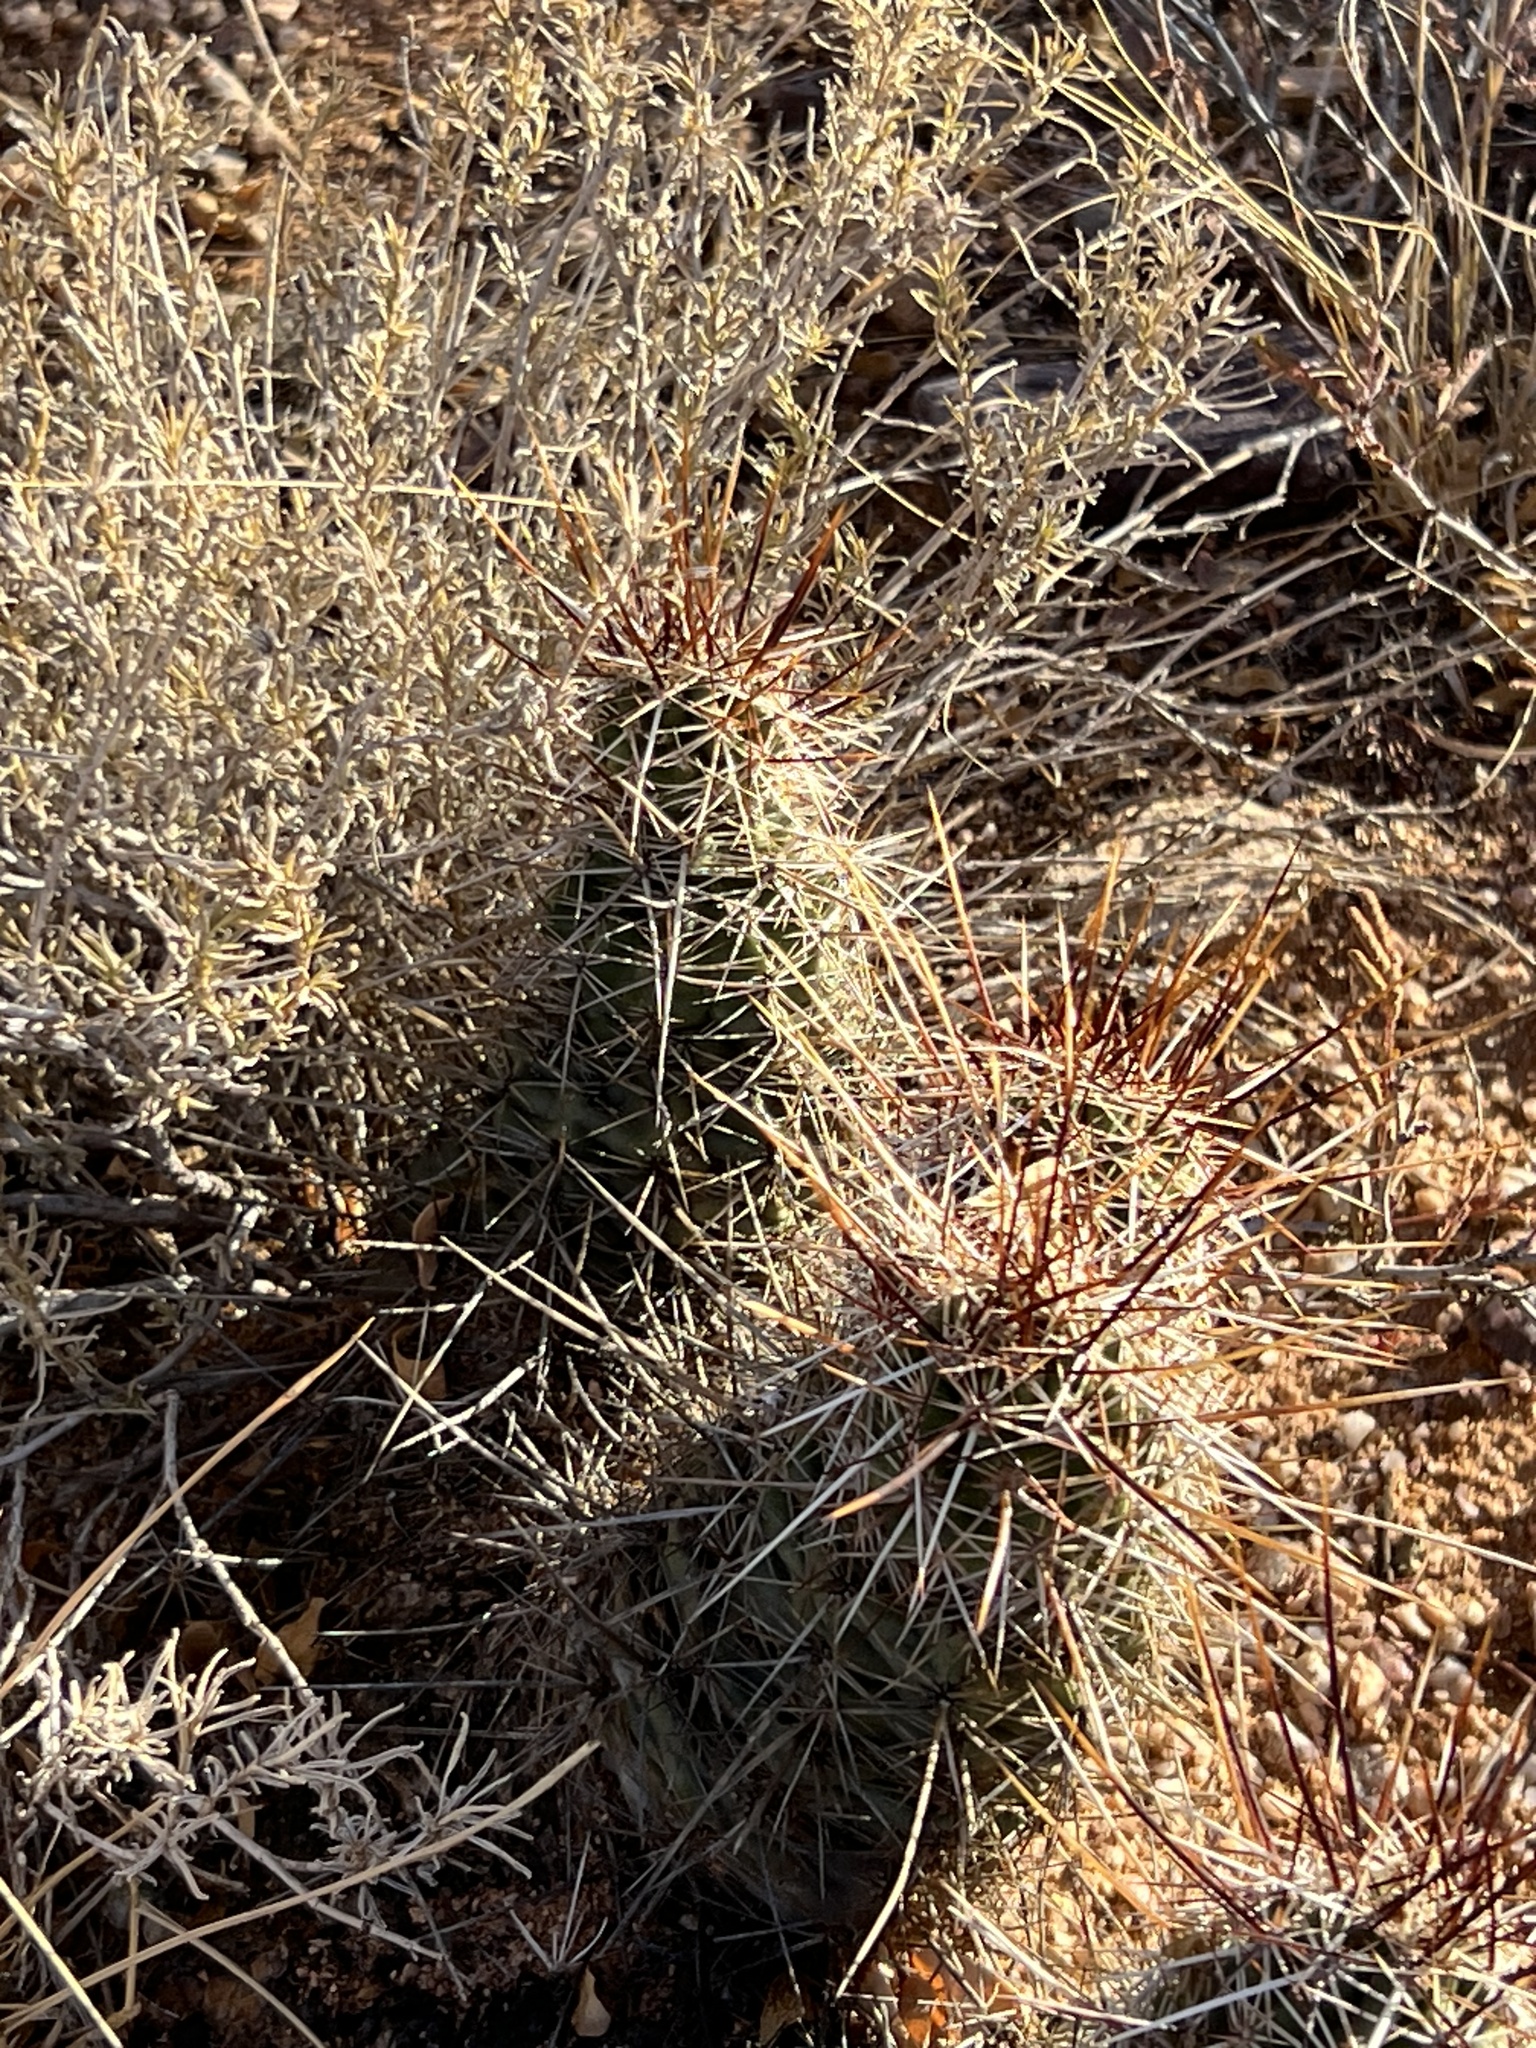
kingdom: Plantae
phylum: Tracheophyta
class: Magnoliopsida
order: Caryophyllales
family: Cactaceae
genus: Echinocereus
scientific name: Echinocereus fasciculatus
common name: Bundle hedgehog
